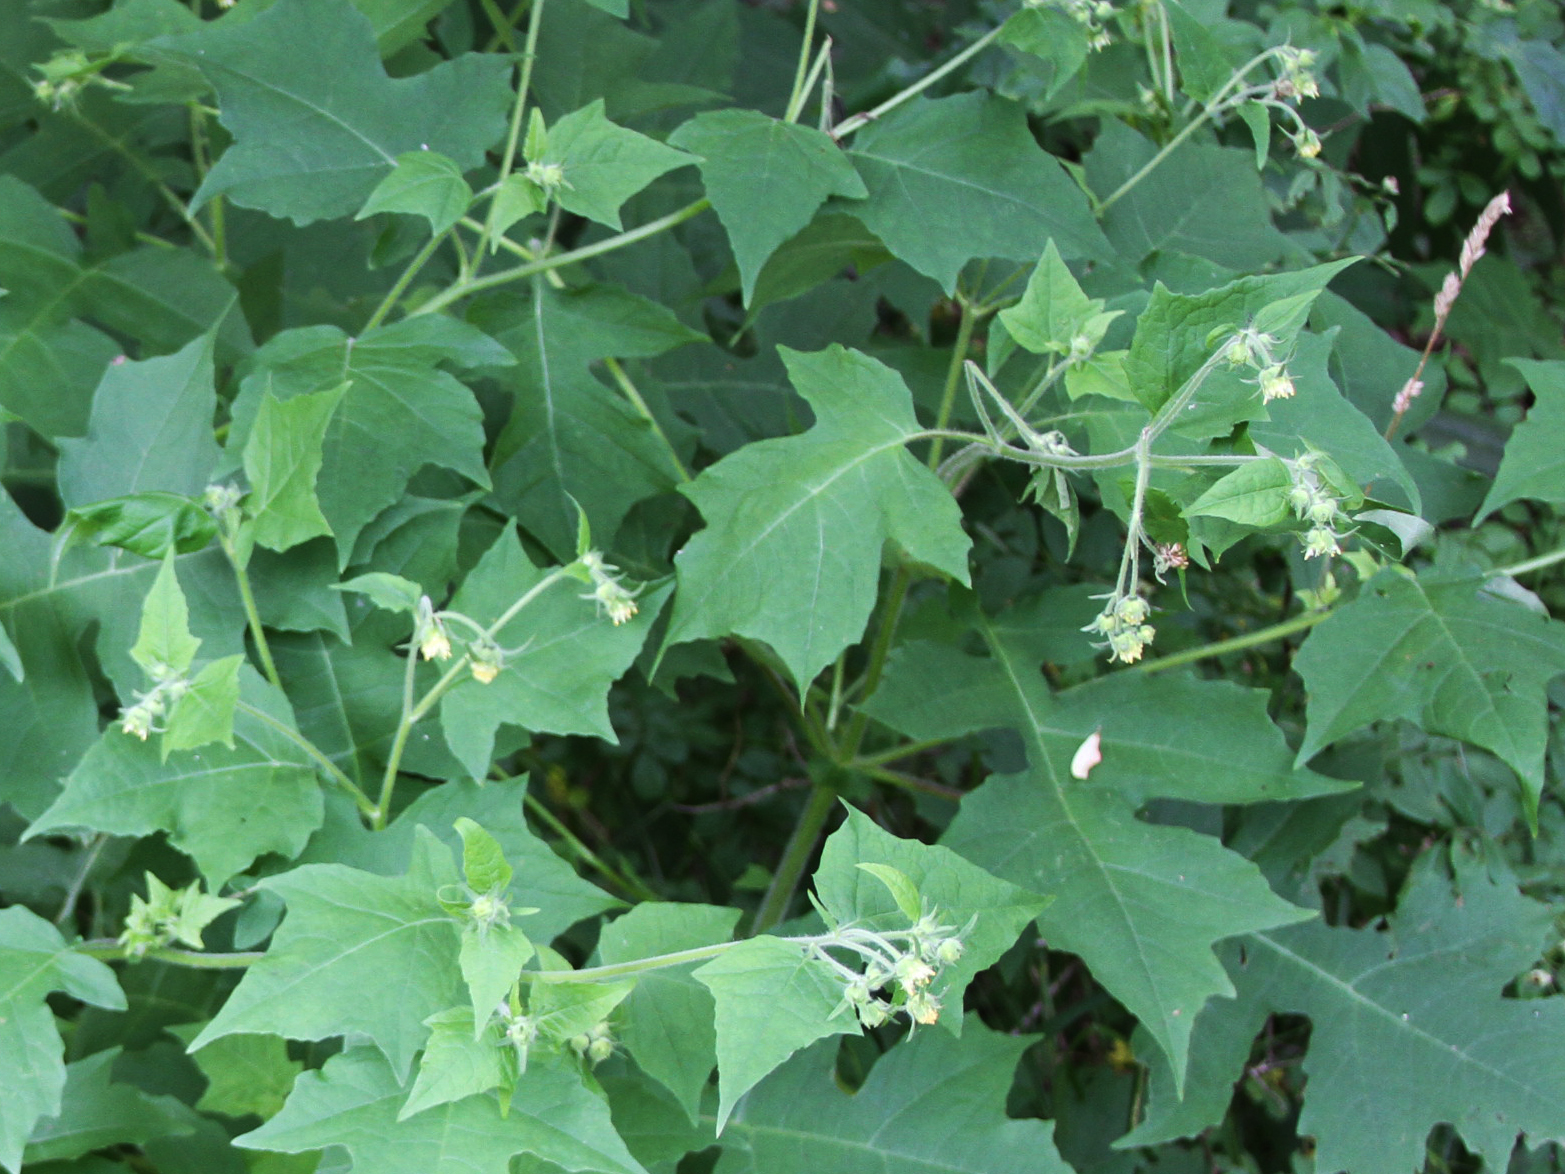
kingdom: Plantae
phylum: Tracheophyta
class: Magnoliopsida
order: Asterales
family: Asteraceae
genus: Polymnia
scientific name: Polymnia canadensis
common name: Pale-flowered leafcup
